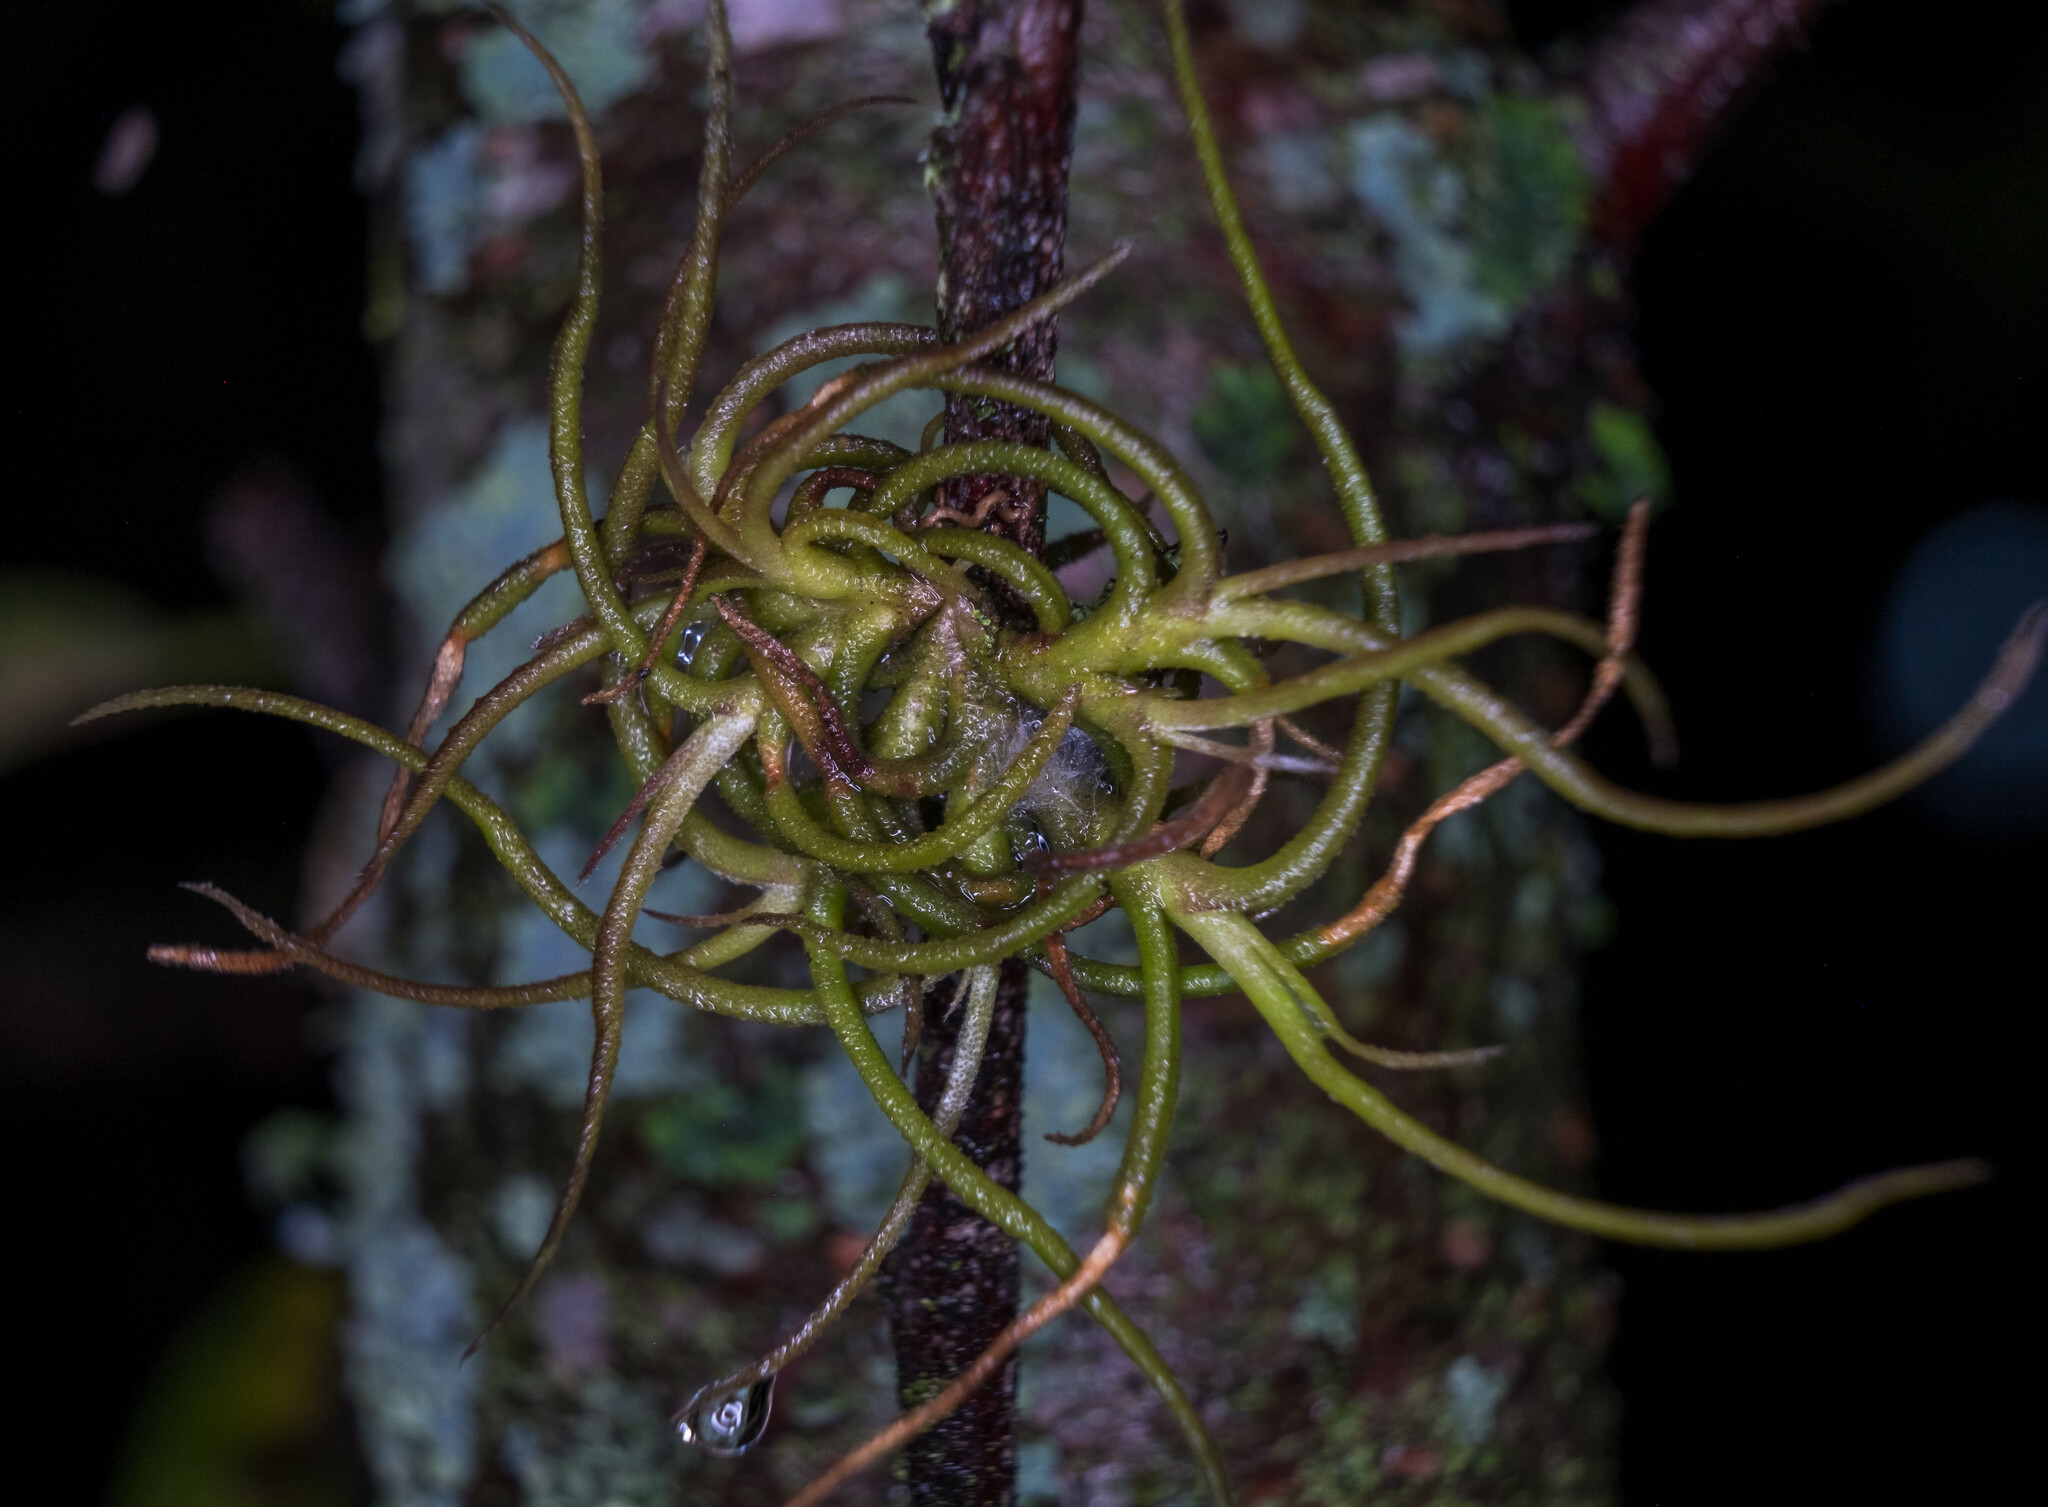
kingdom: Plantae
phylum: Tracheophyta
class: Liliopsida
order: Poales
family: Bromeliaceae
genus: Tillandsia
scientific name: Tillandsia recurvata
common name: Small ballmoss
